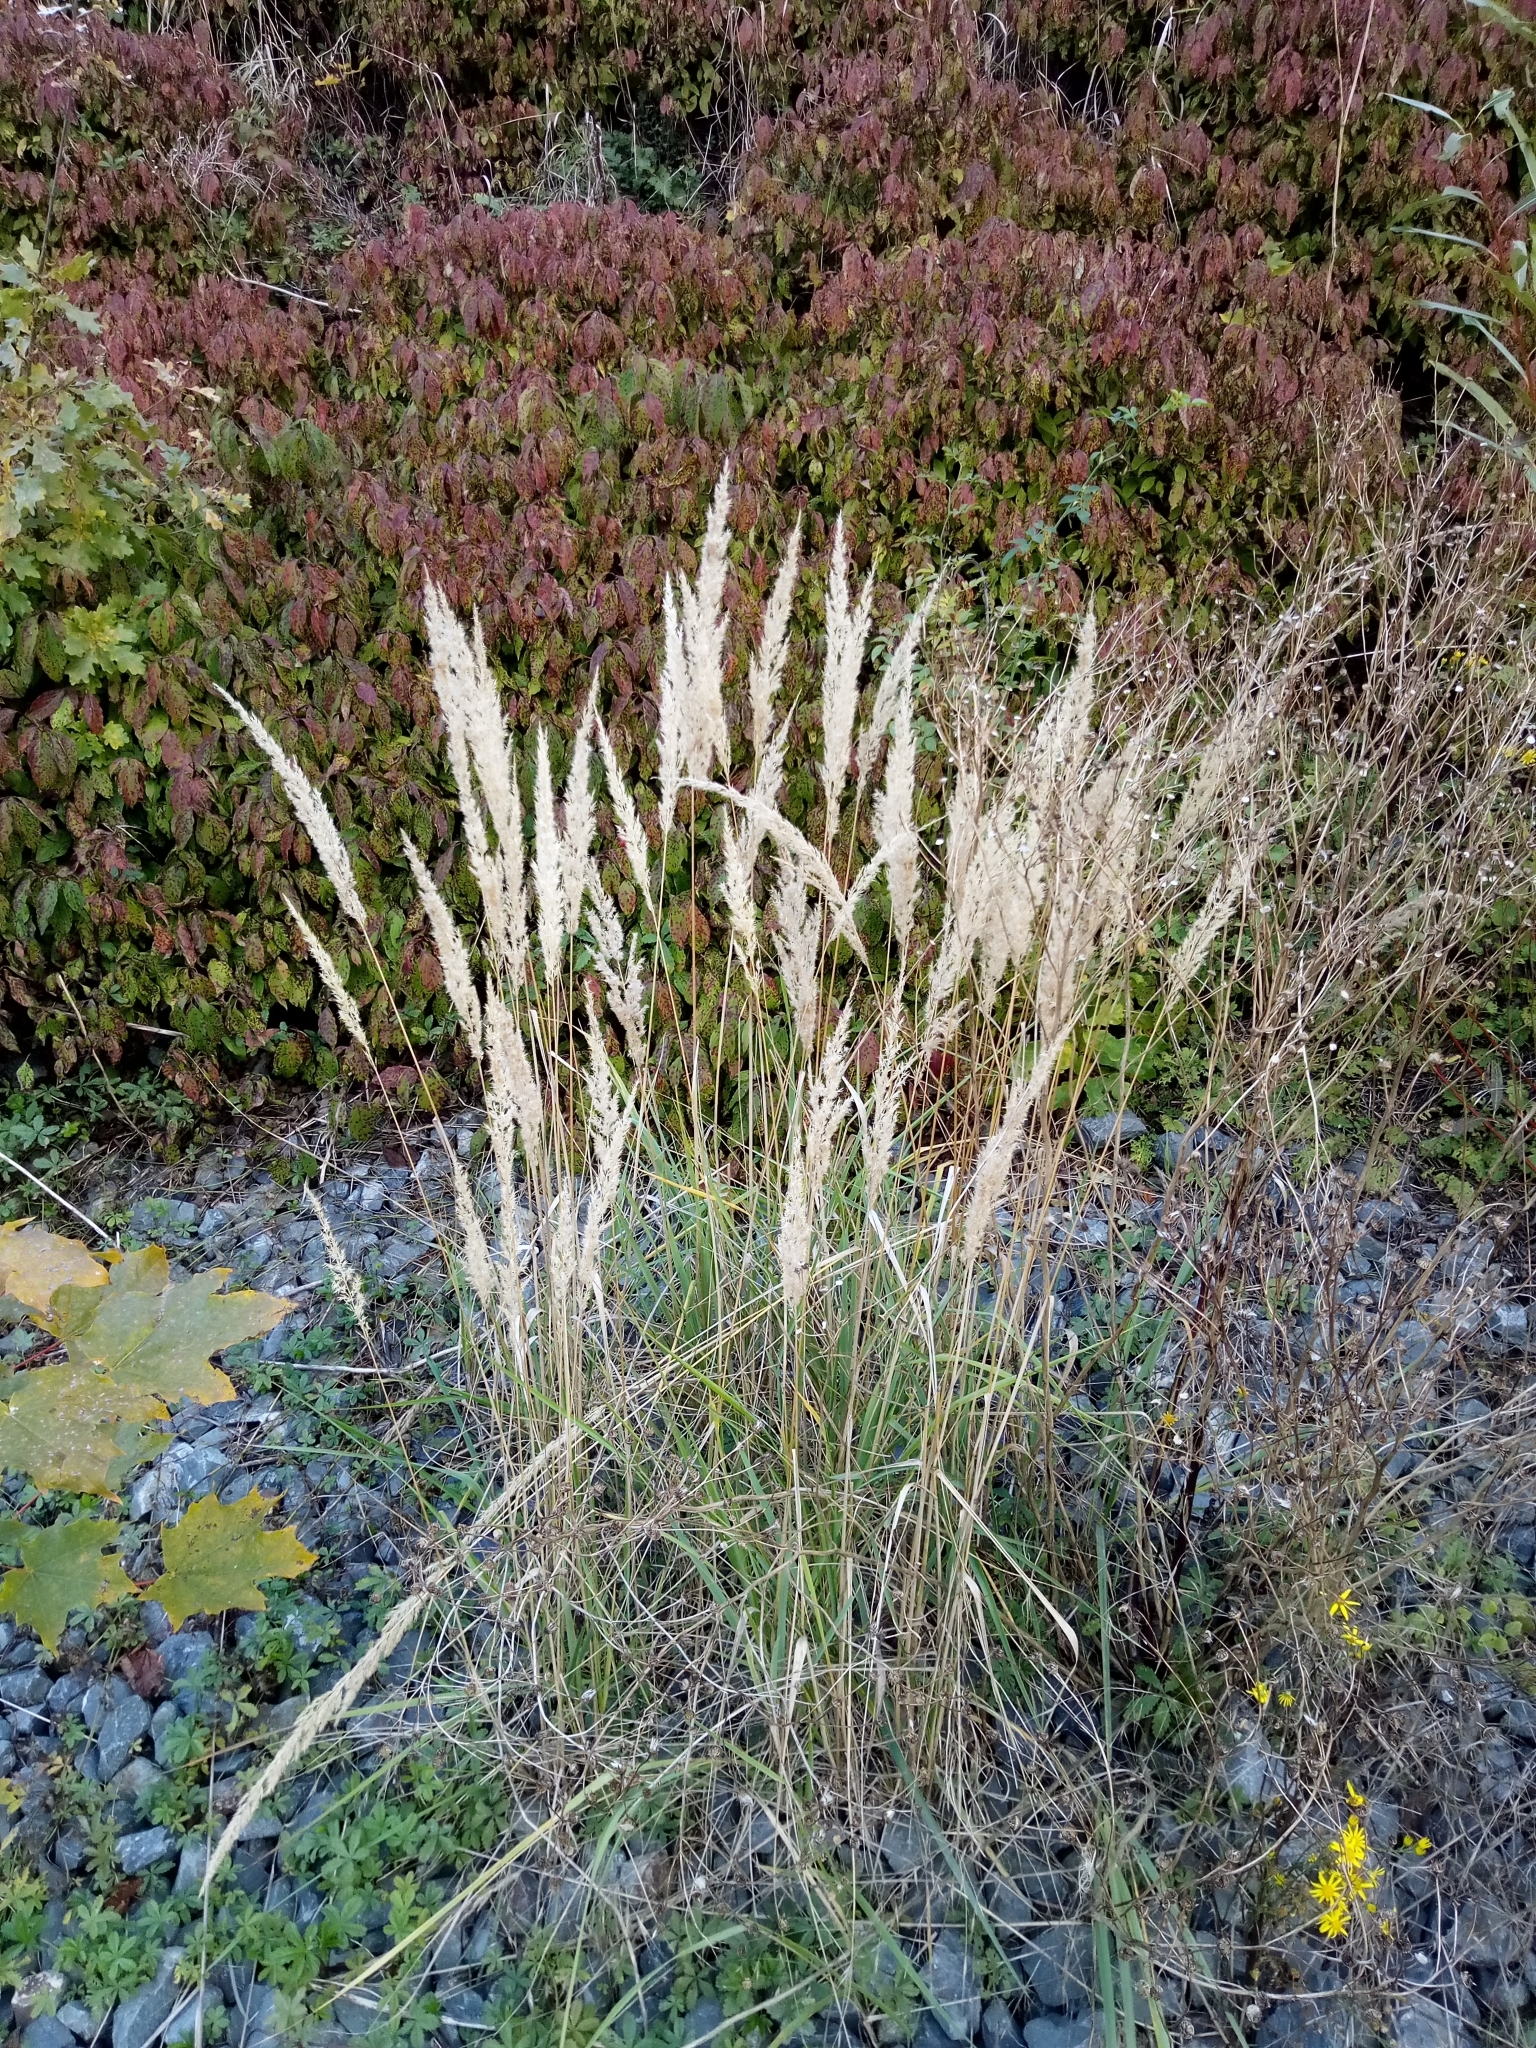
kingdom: Plantae
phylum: Tracheophyta
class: Liliopsida
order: Poales
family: Poaceae
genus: Calamagrostis
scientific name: Calamagrostis epigejos
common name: Wood small-reed
